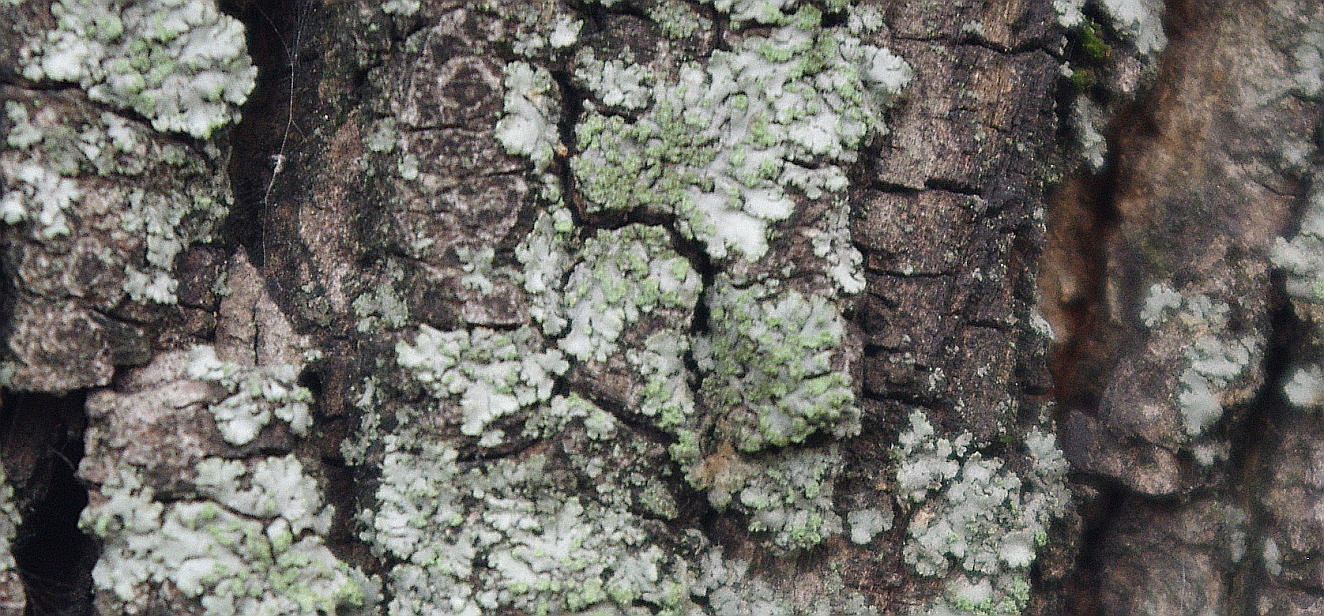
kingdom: Fungi
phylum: Ascomycota
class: Lecanoromycetes
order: Caliciales
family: Physciaceae
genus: Phaeophyscia
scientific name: Phaeophyscia orbicularis
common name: Mealy shadow lichen
